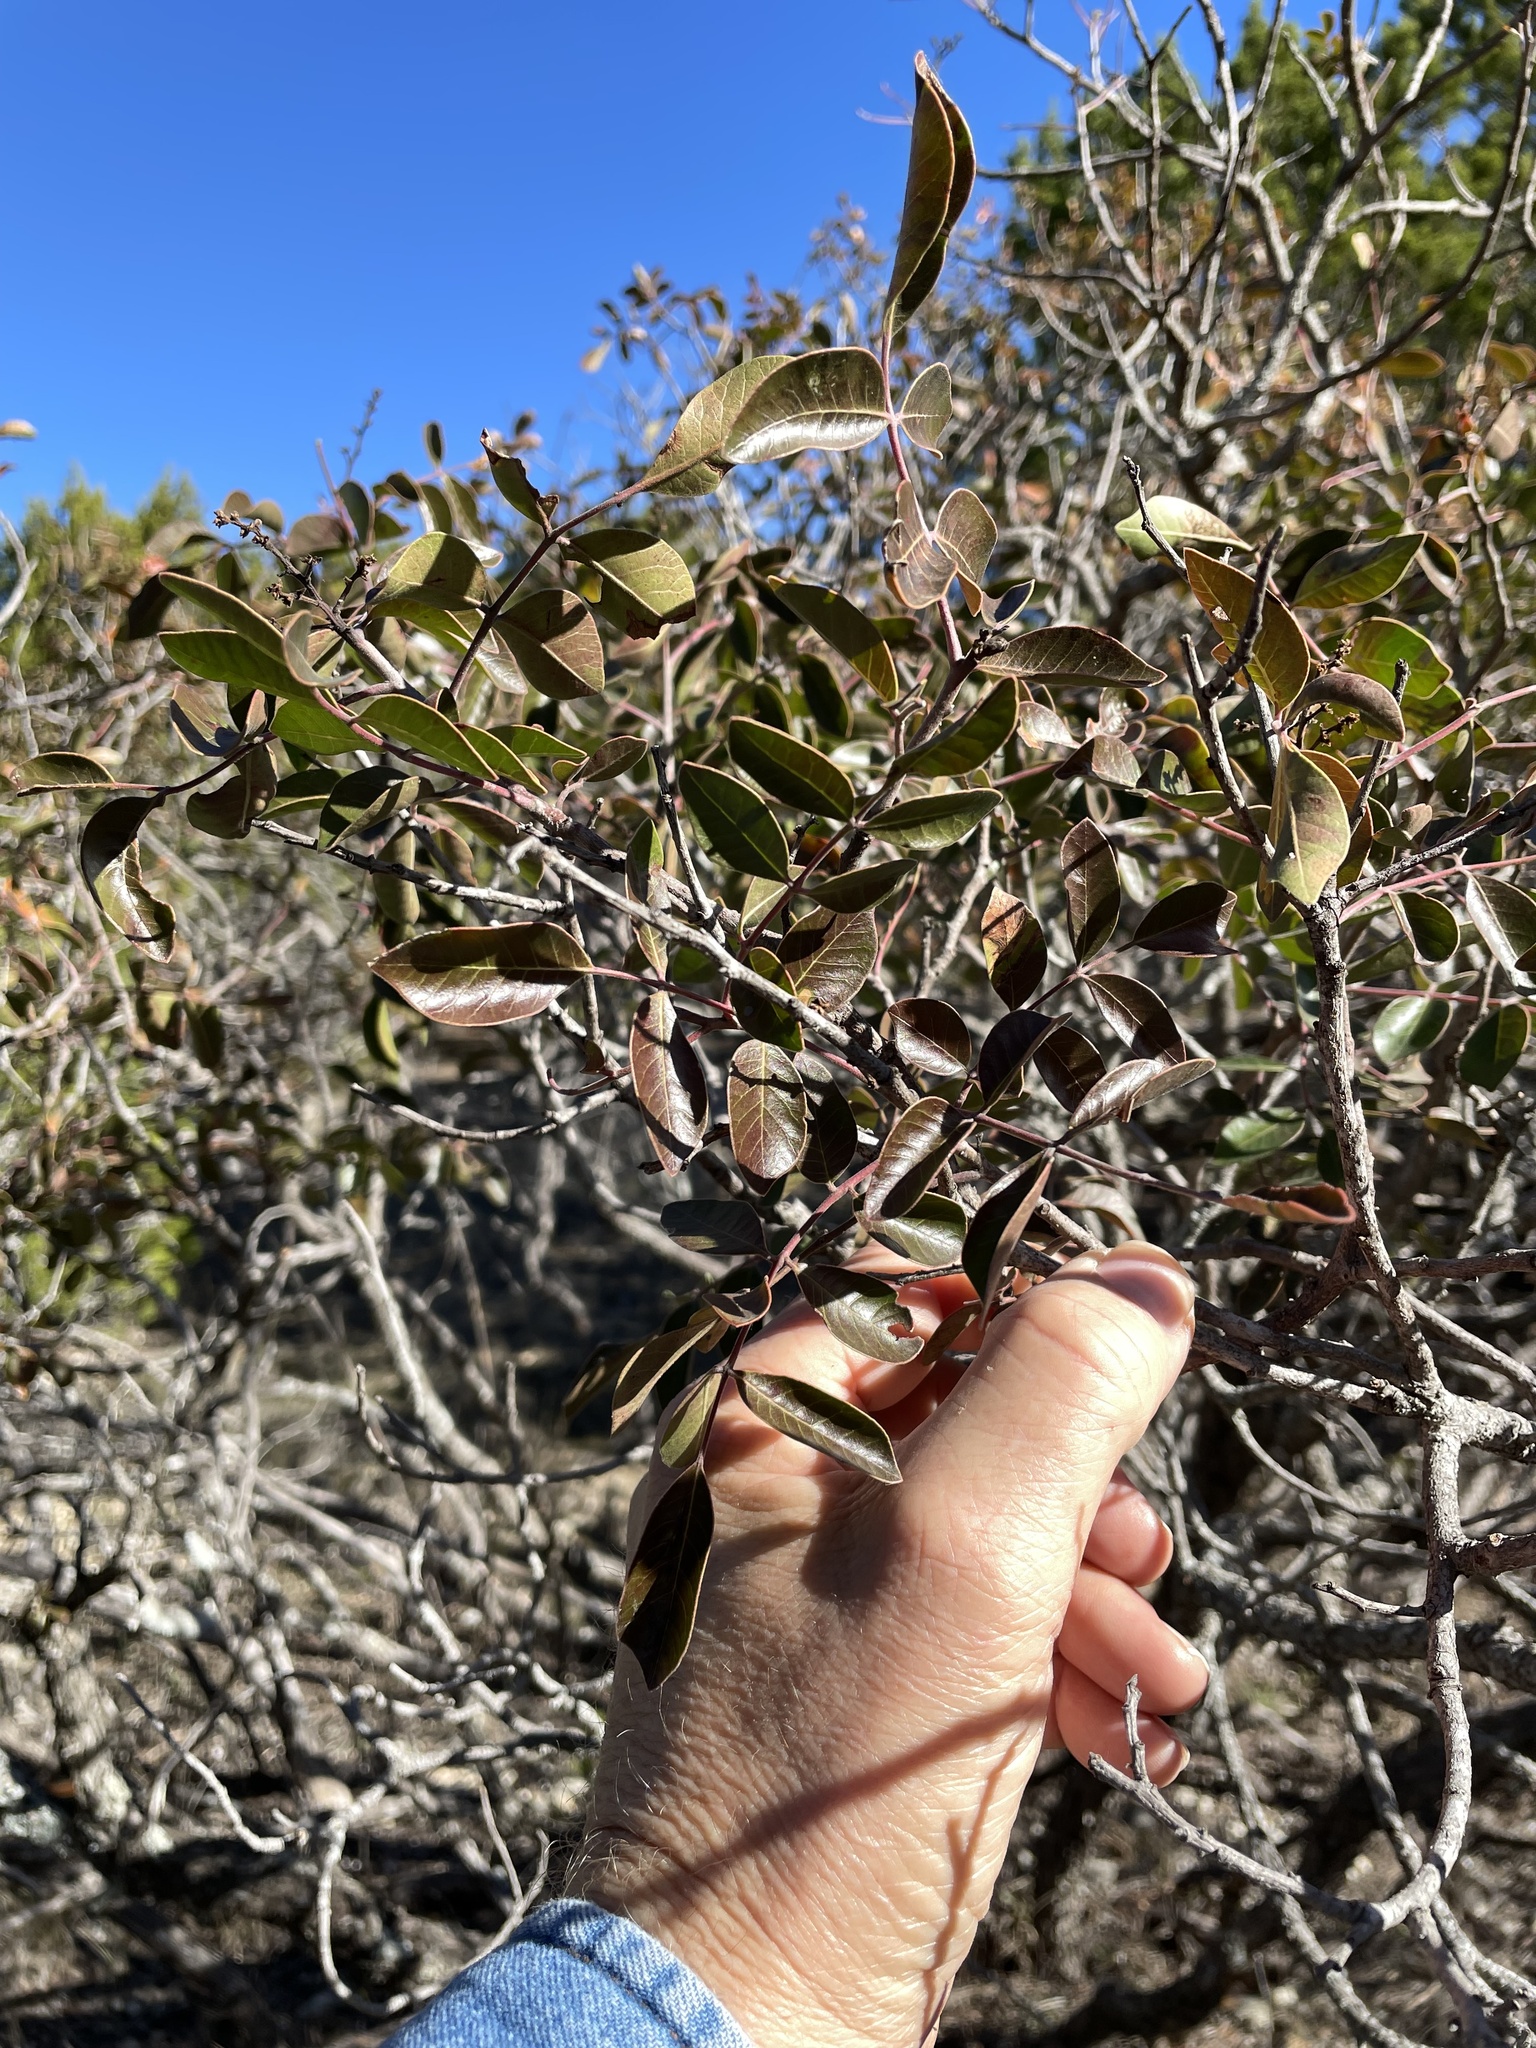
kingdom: Plantae
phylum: Tracheophyta
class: Magnoliopsida
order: Sapindales
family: Anacardiaceae
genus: Rhus
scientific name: Rhus virens
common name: Evergreen sumac
